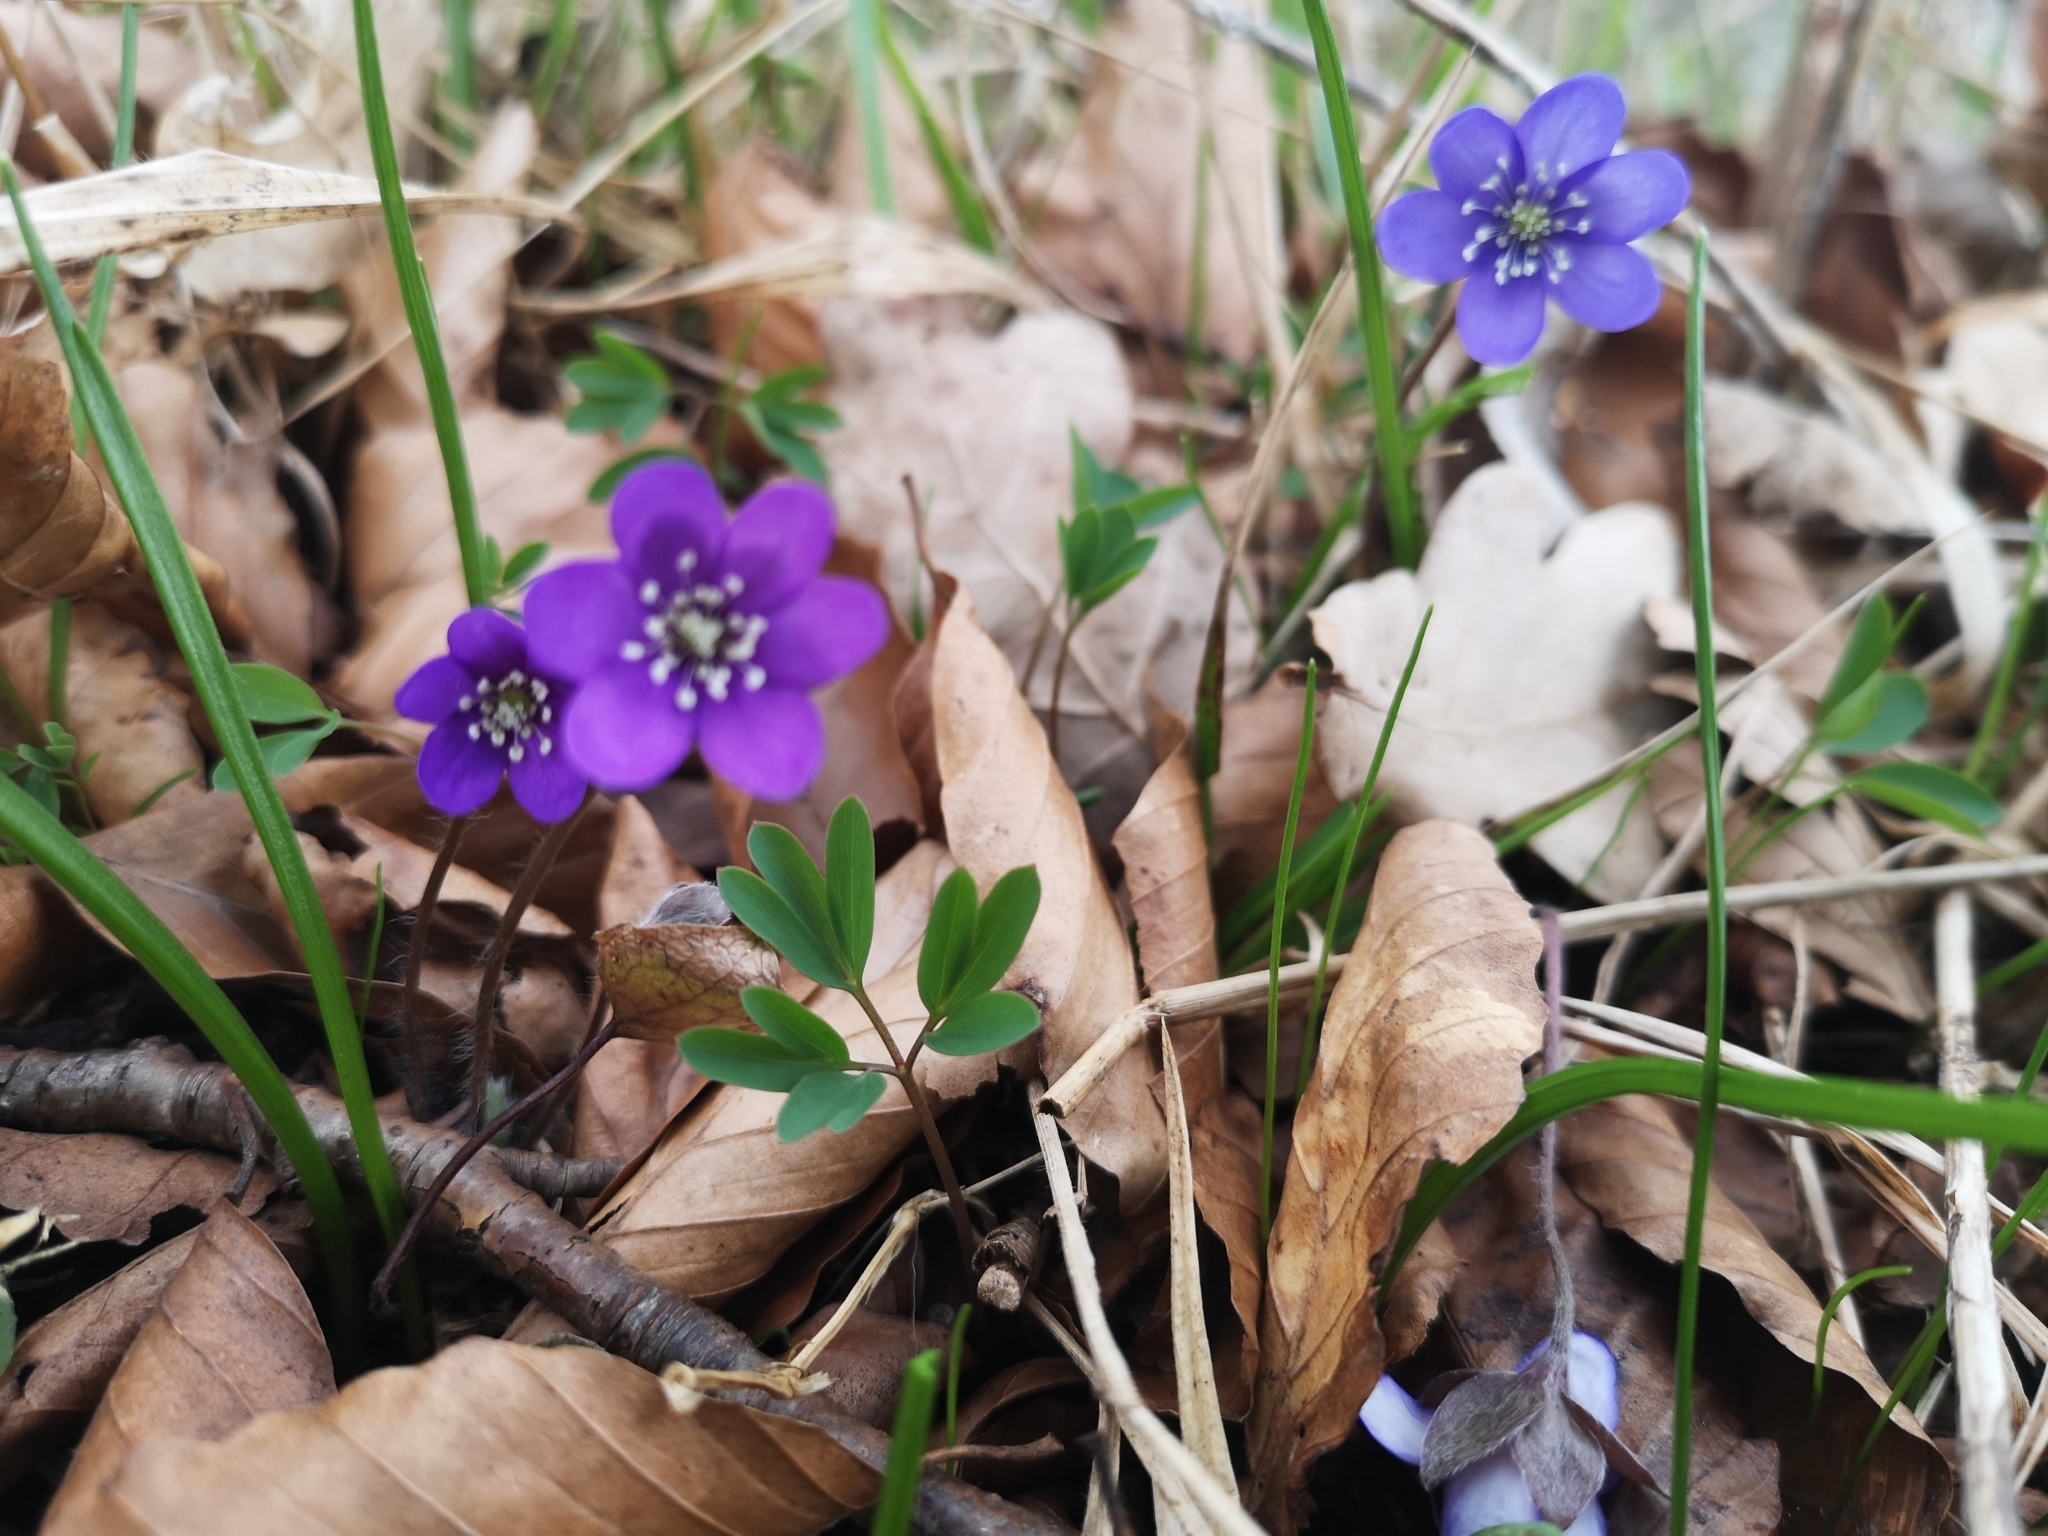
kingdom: Plantae
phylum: Tracheophyta
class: Magnoliopsida
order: Ranunculales
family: Ranunculaceae
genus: Hepatica
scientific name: Hepatica nobilis
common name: Liverleaf
